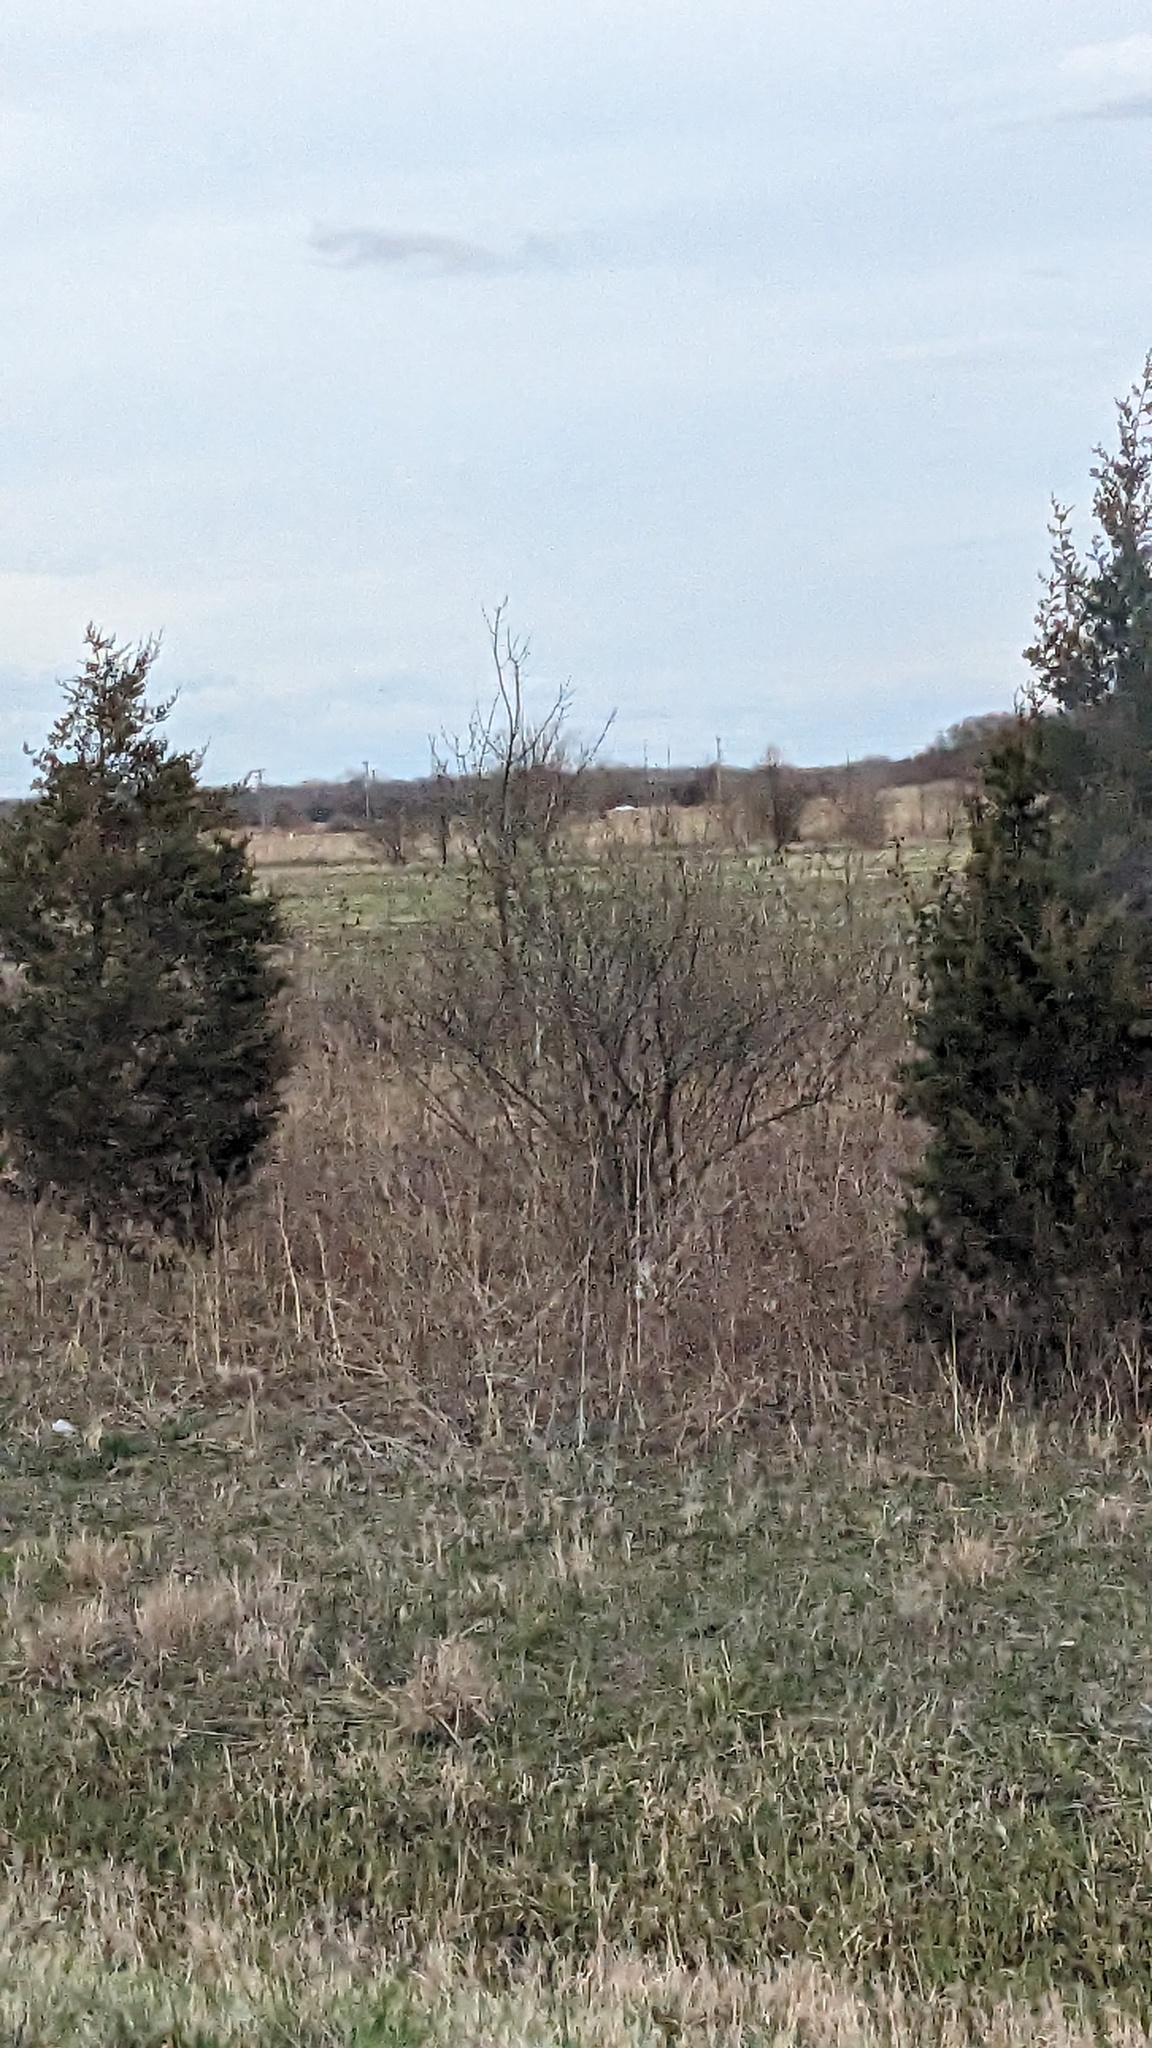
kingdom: Plantae
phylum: Tracheophyta
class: Pinopsida
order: Pinales
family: Cupressaceae
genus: Juniperus
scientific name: Juniperus virginiana
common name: Red juniper
